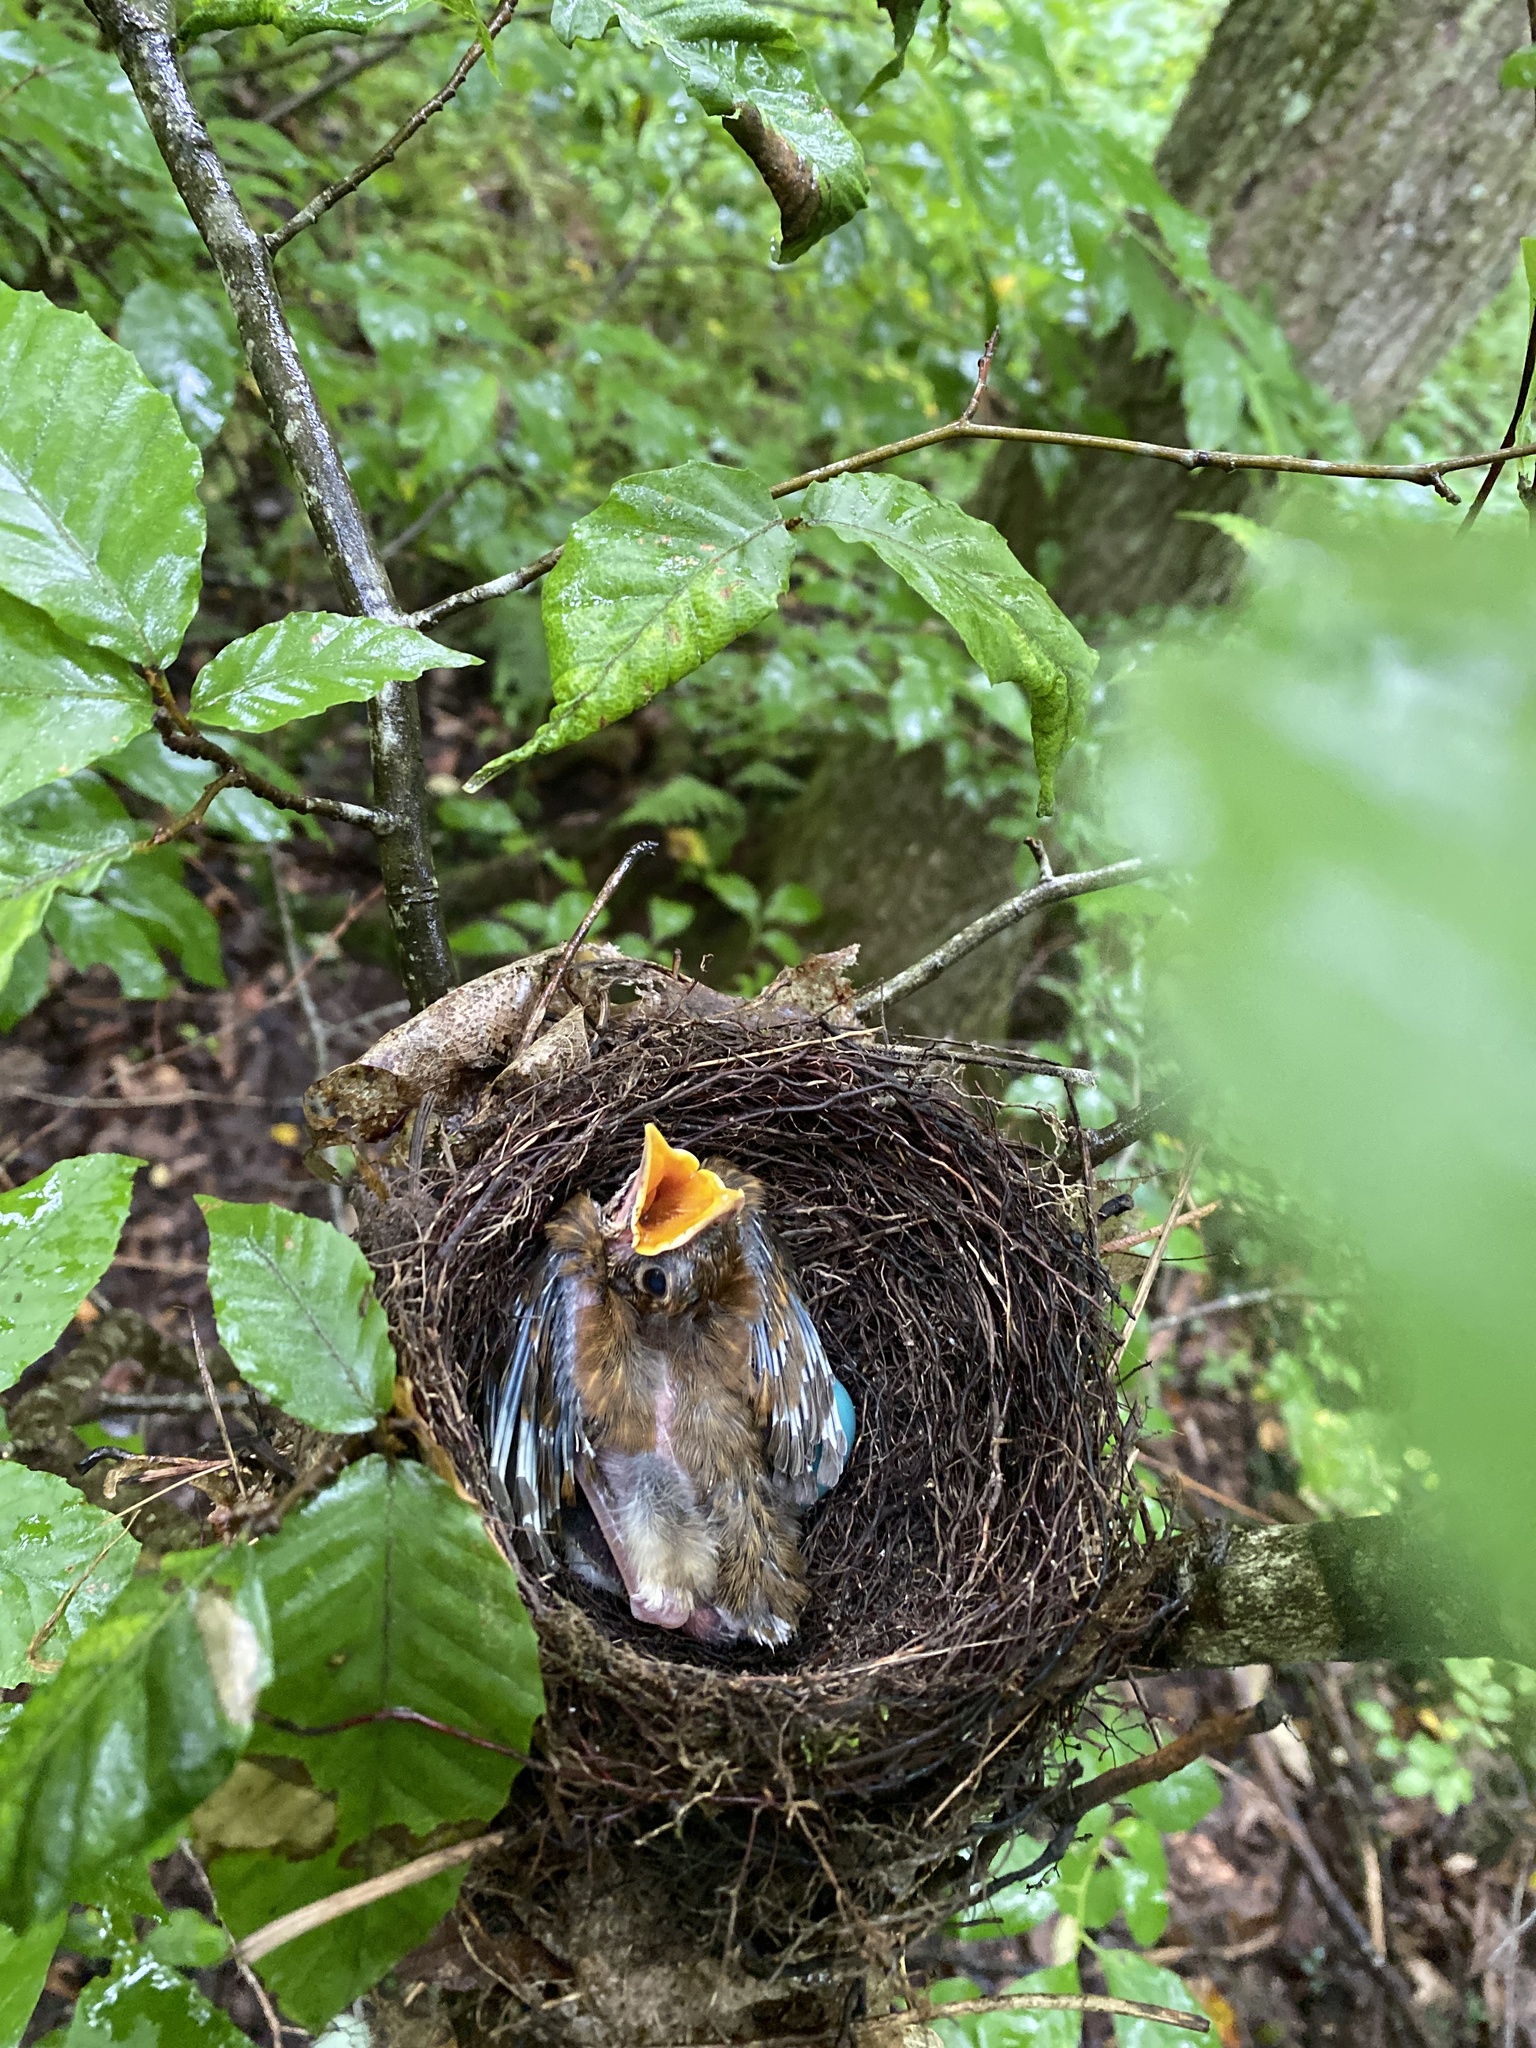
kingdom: Animalia
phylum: Chordata
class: Aves
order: Passeriformes
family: Turdidae
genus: Hylocichla
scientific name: Hylocichla mustelina
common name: Wood thrush
